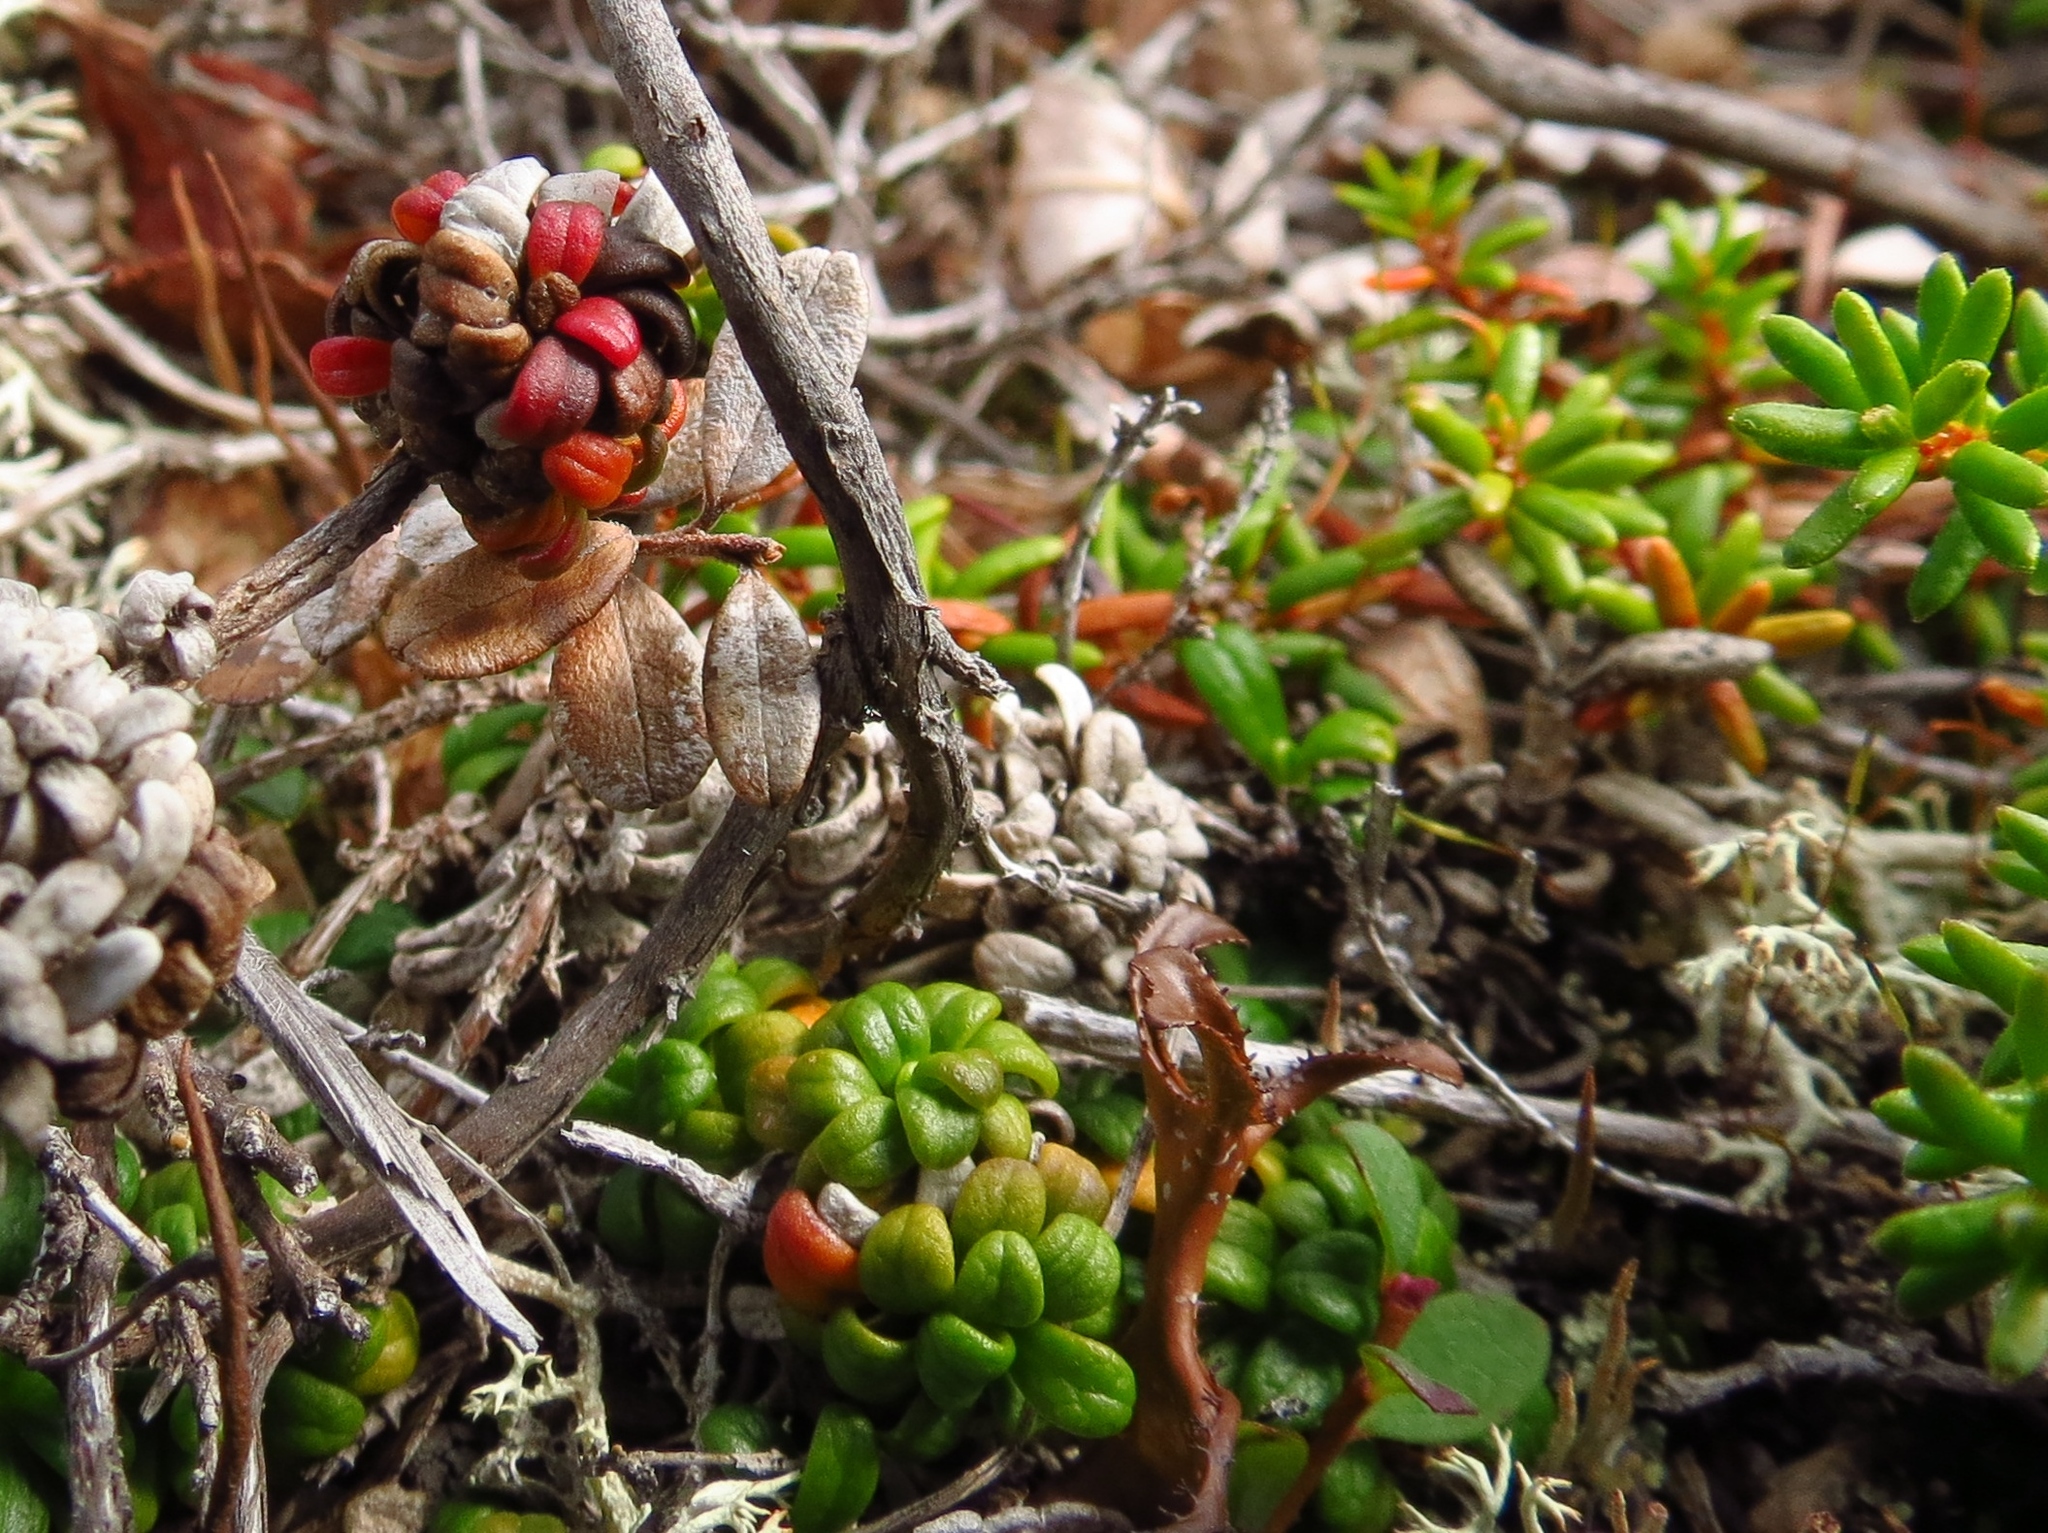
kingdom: Plantae
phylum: Tracheophyta
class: Magnoliopsida
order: Ericales
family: Ericaceae
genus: Vaccinium
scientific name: Vaccinium vitis-idaea
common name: Cowberry
